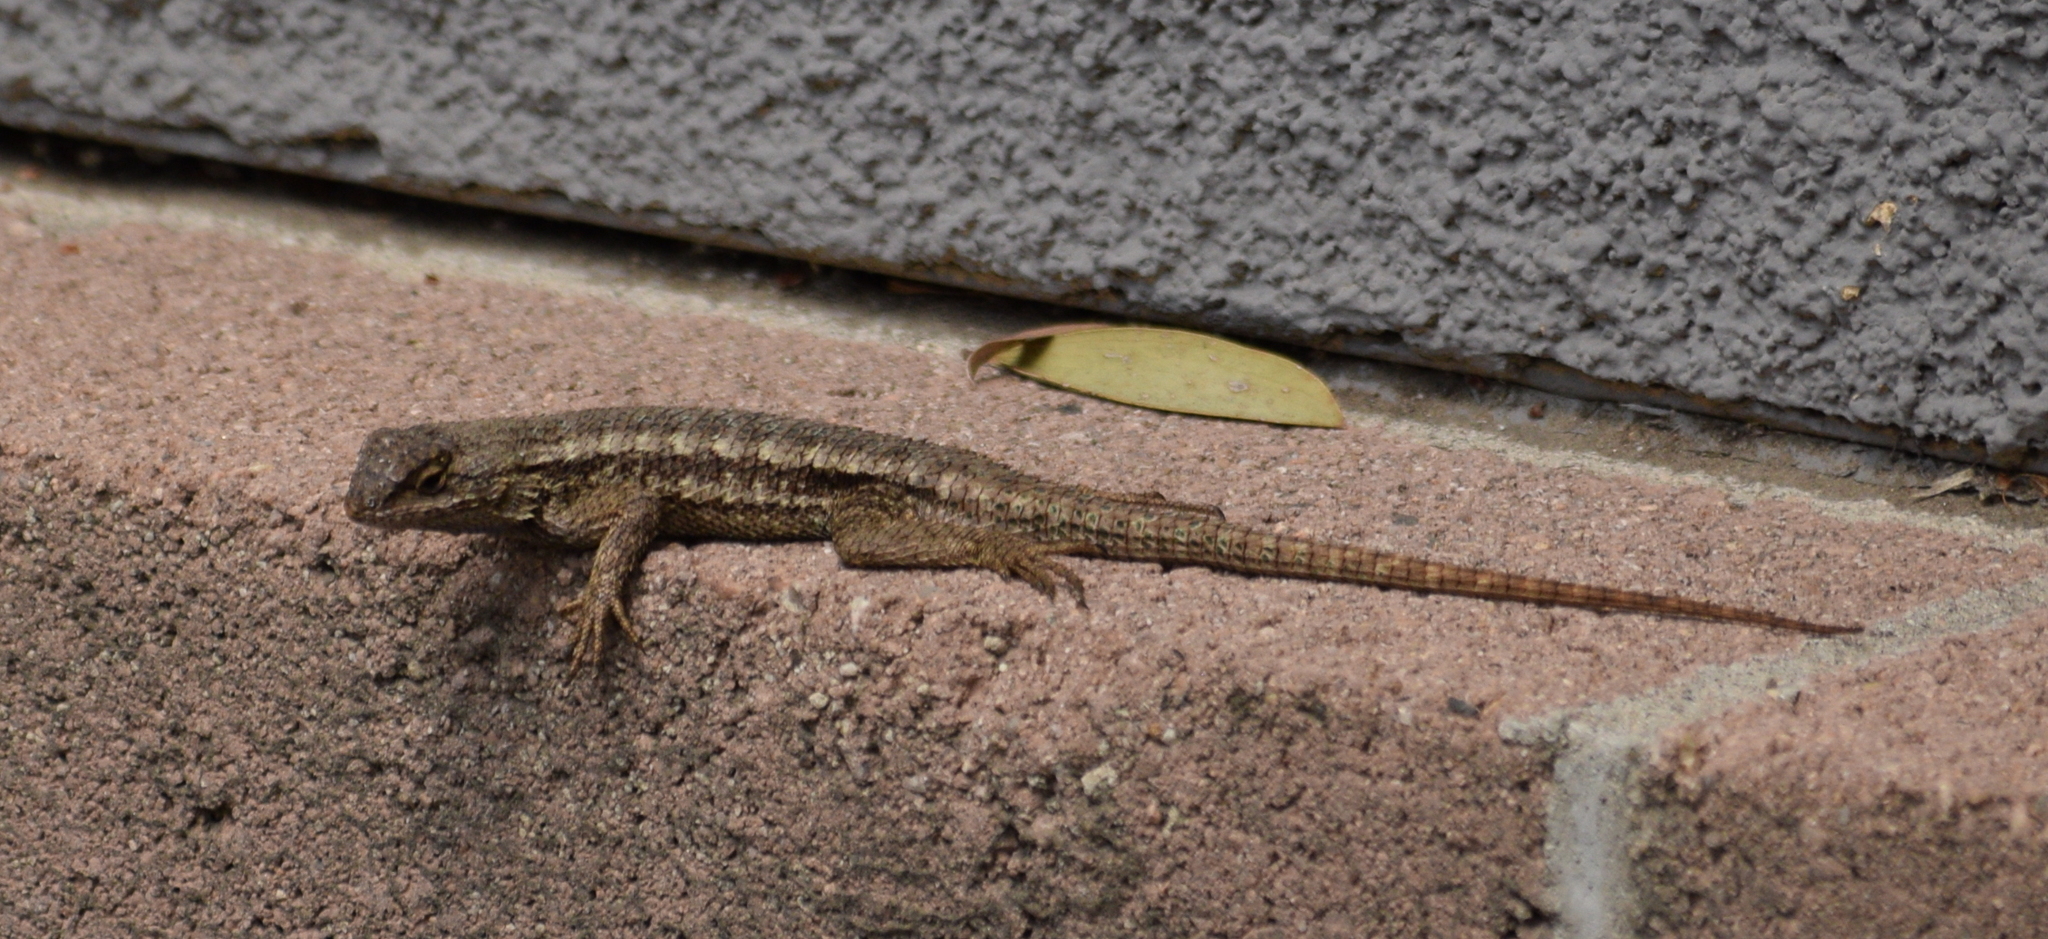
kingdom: Animalia
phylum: Chordata
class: Squamata
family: Phrynosomatidae
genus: Sceloporus
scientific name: Sceloporus occidentalis
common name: Western fence lizard
